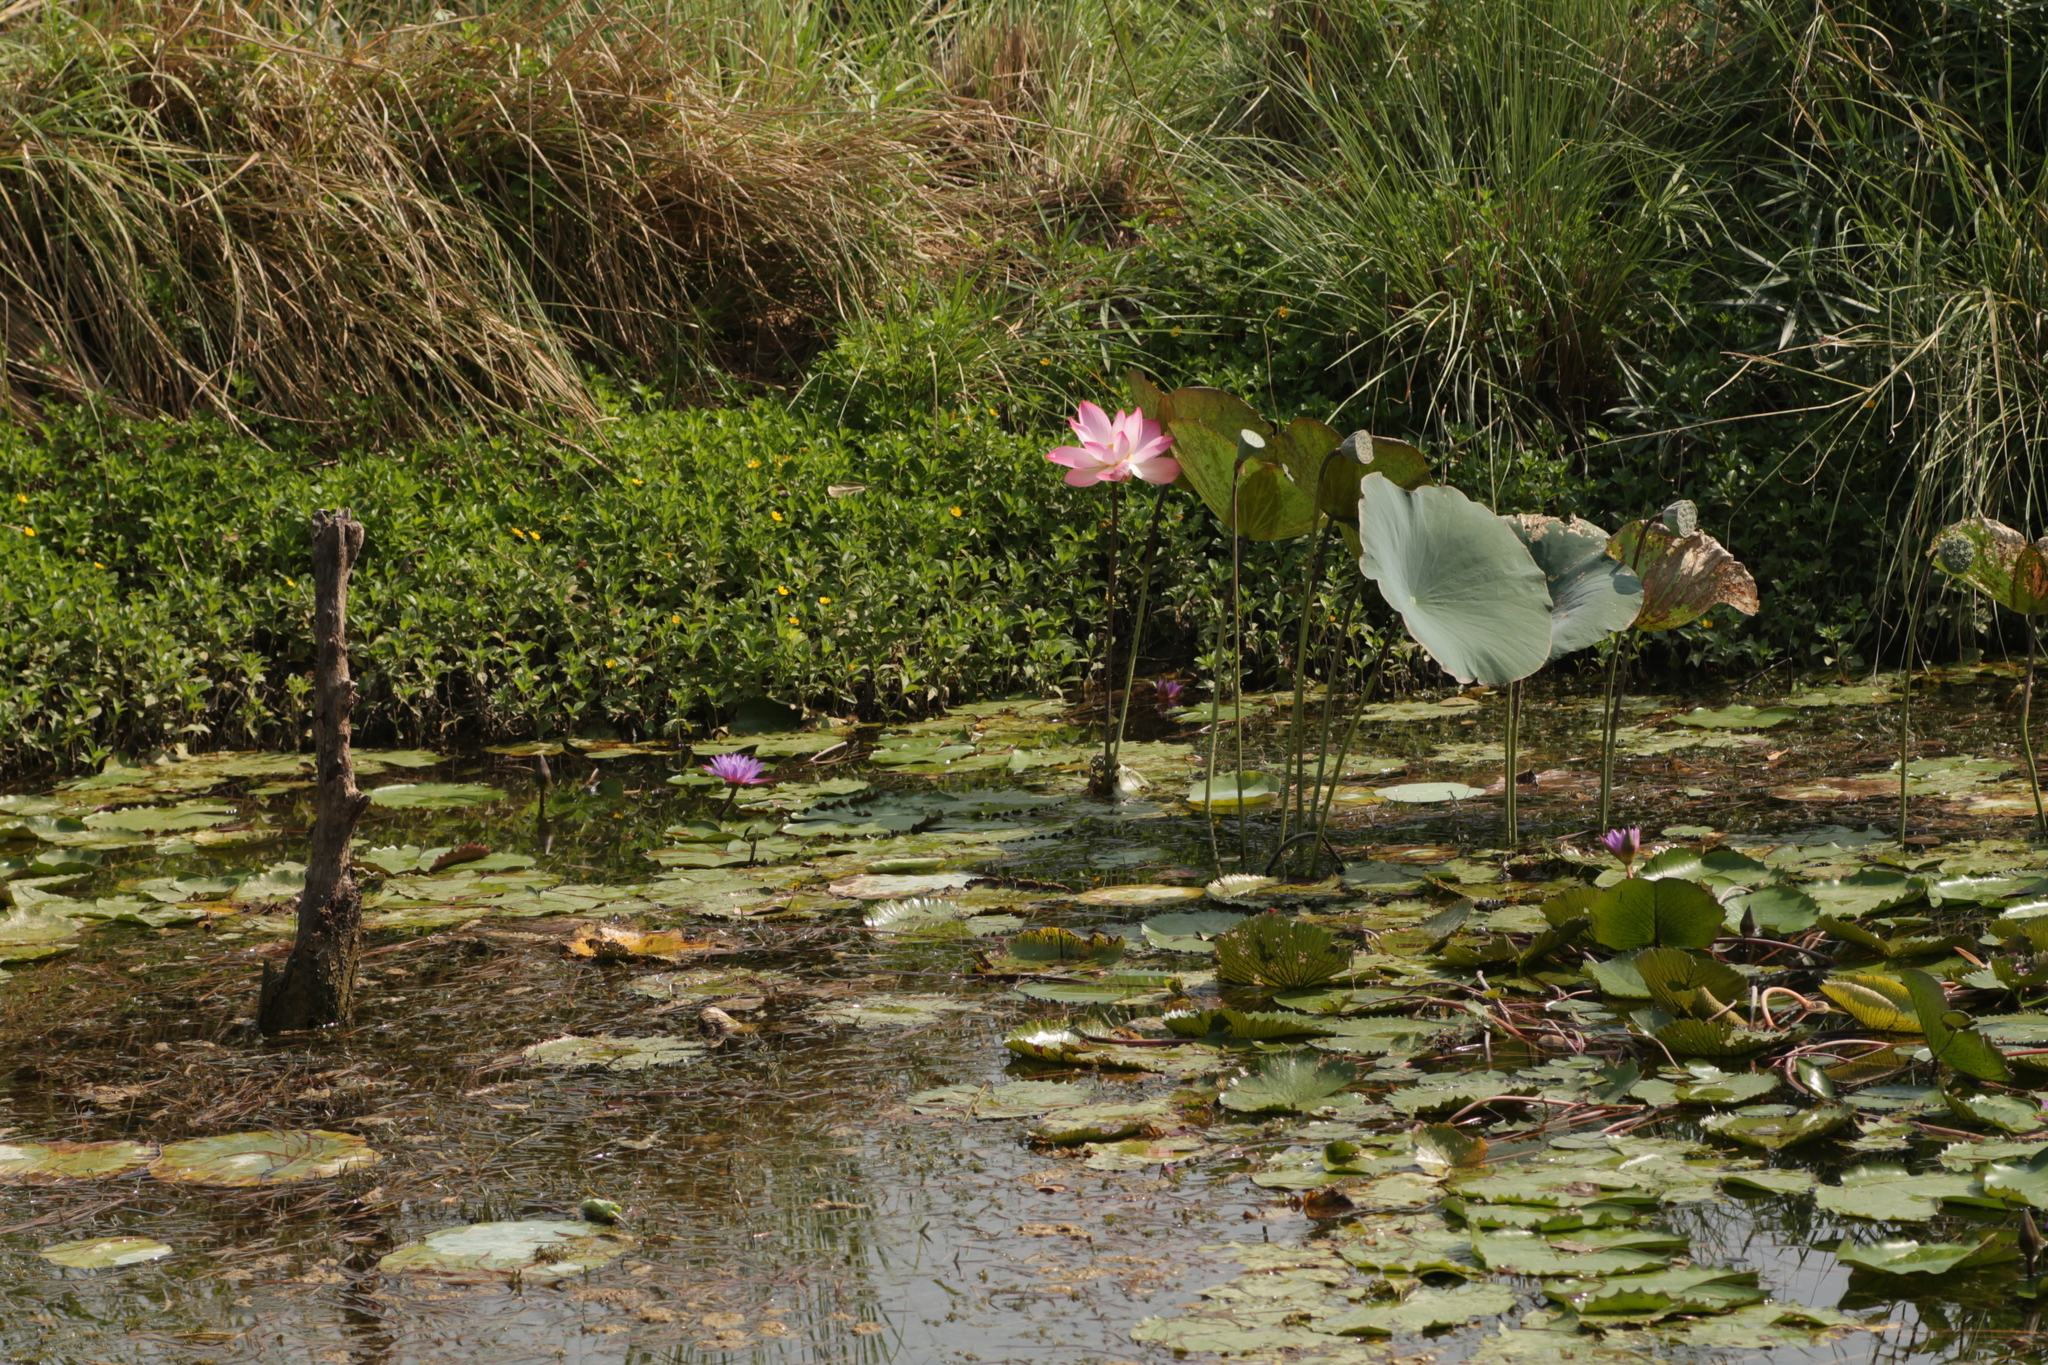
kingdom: Plantae
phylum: Tracheophyta
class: Magnoliopsida
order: Proteales
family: Nelumbonaceae
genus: Nelumbo
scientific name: Nelumbo nucifera
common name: Sacred lotus
